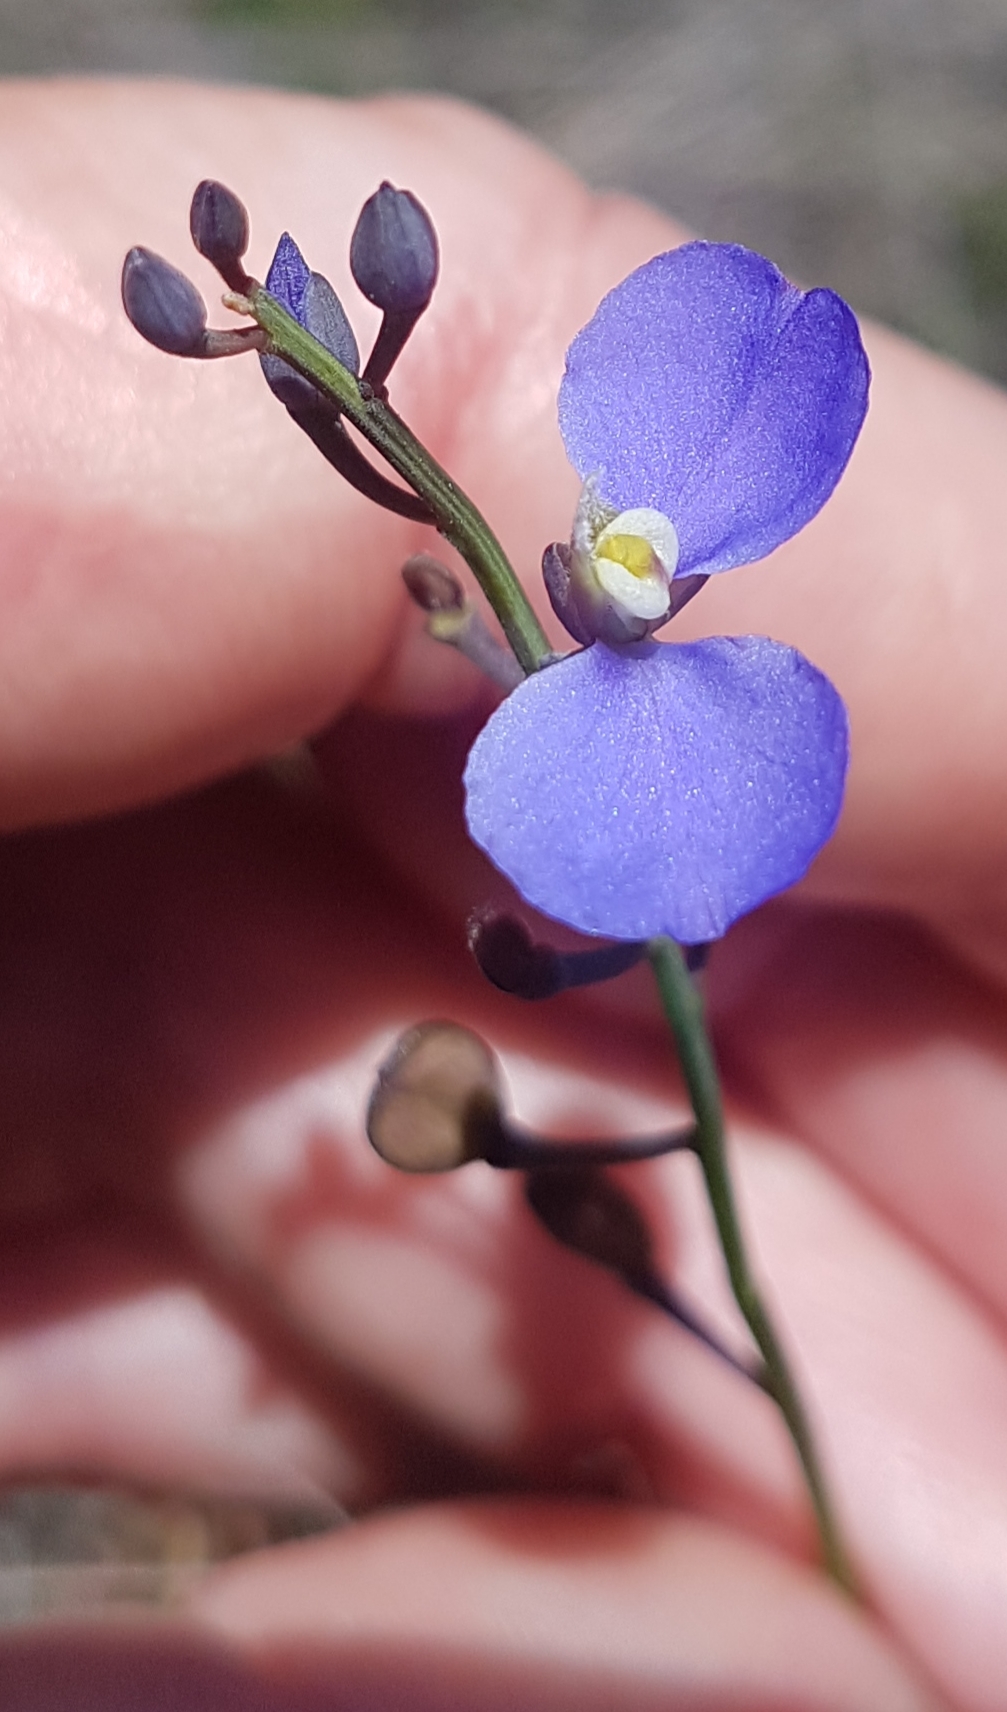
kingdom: Plantae
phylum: Tracheophyta
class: Magnoliopsida
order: Fabales
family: Polygalaceae
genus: Comesperma
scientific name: Comesperma sphaerocarpum
